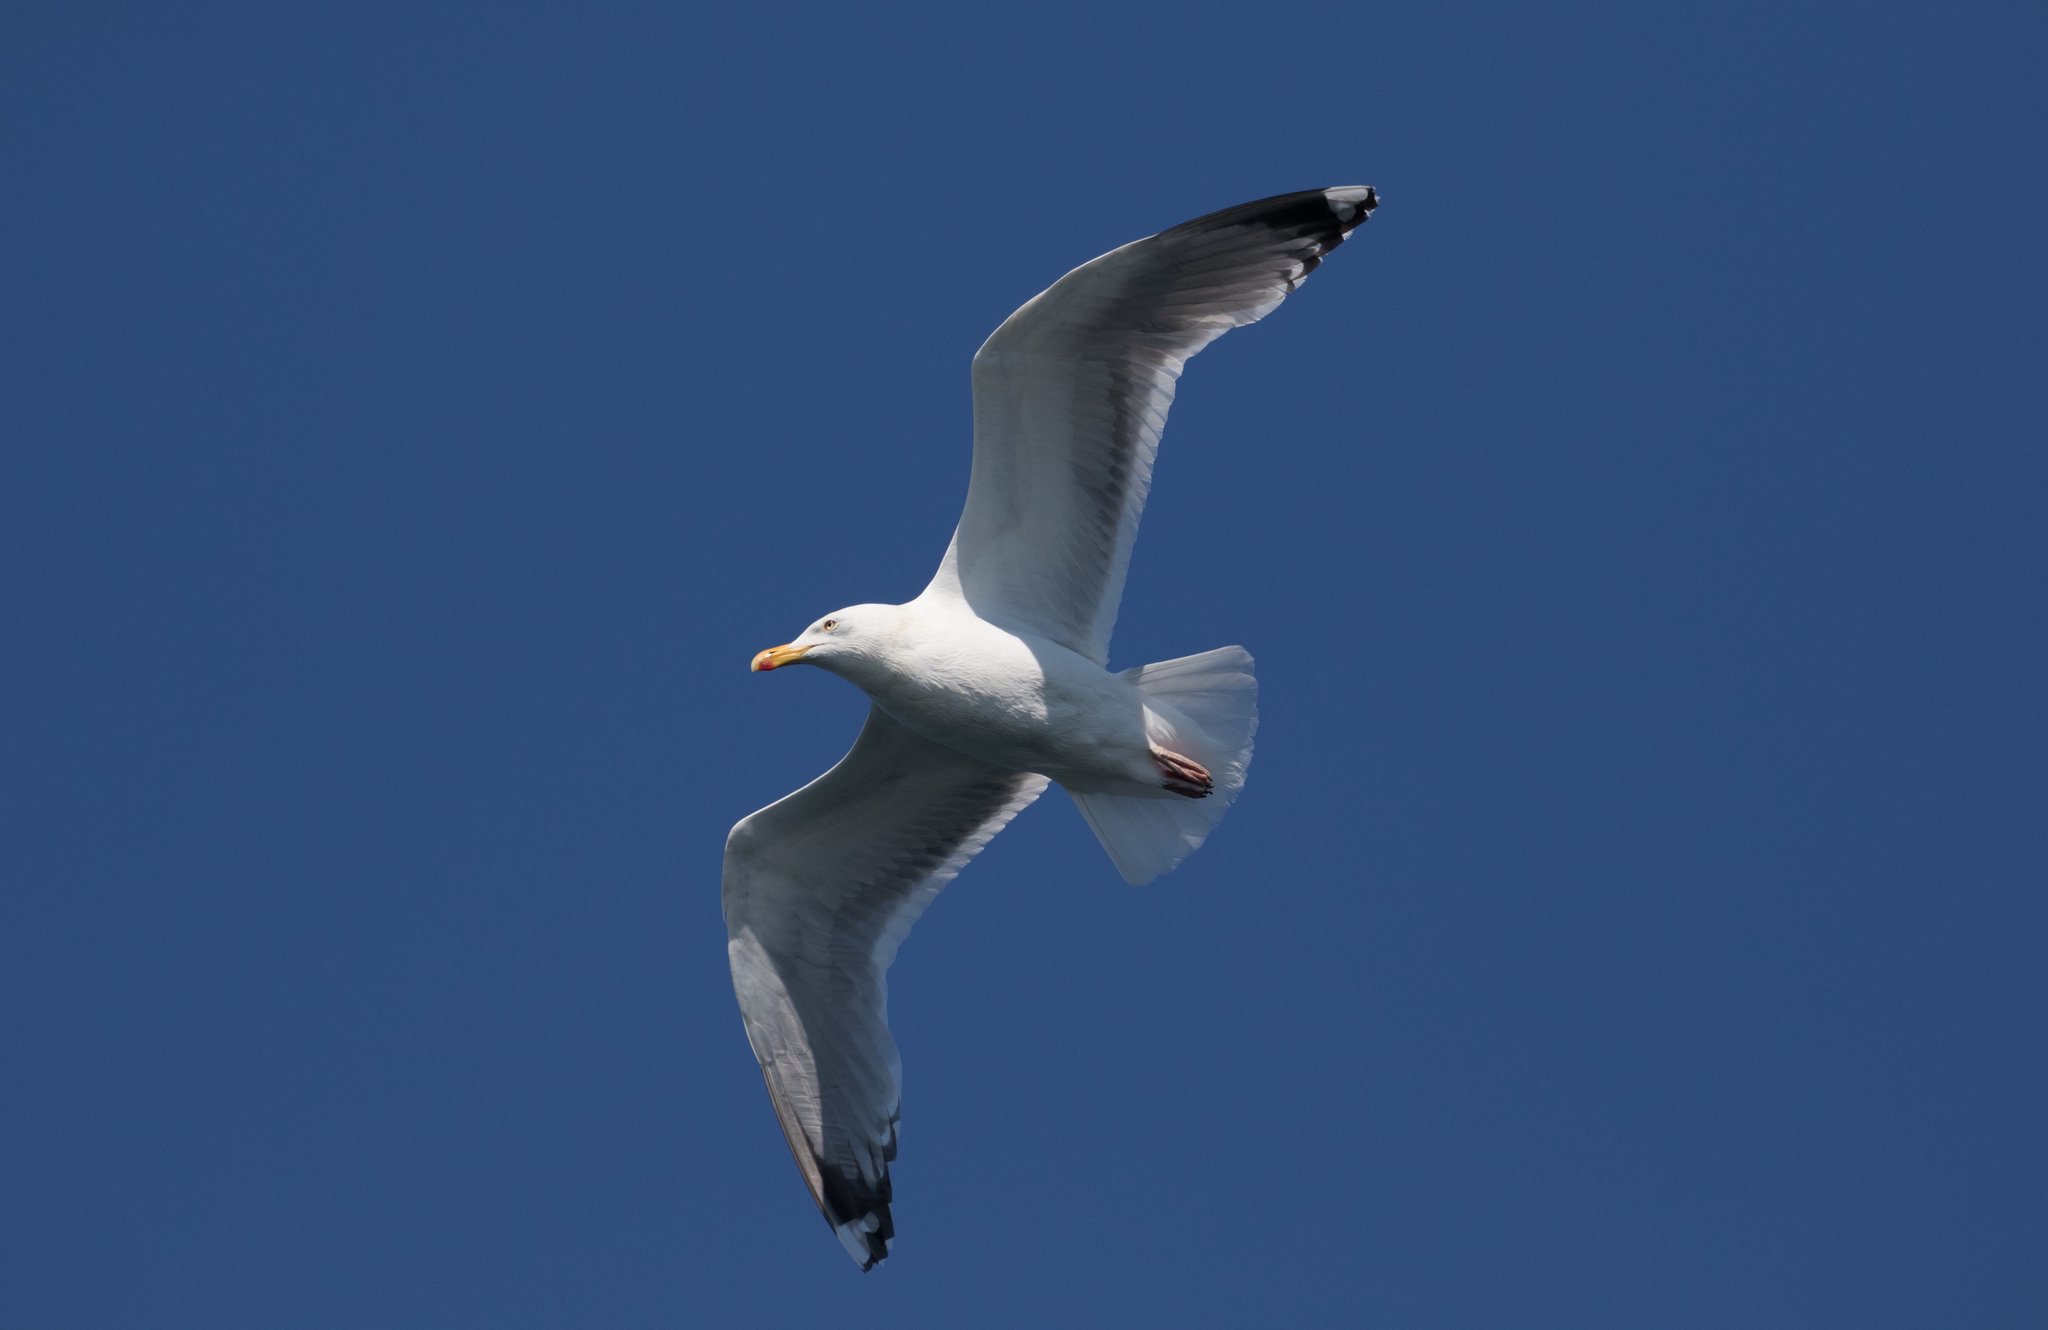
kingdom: Animalia
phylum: Chordata
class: Aves
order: Charadriiformes
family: Laridae
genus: Larus
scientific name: Larus argentatus
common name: Herring gull
